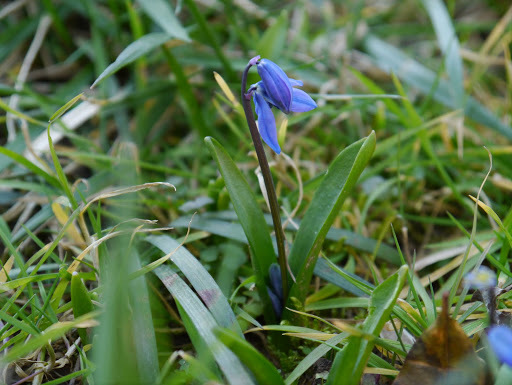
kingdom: Plantae
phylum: Tracheophyta
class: Liliopsida
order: Asparagales
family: Asparagaceae
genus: Scilla
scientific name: Scilla siberica
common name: Siberian squill
